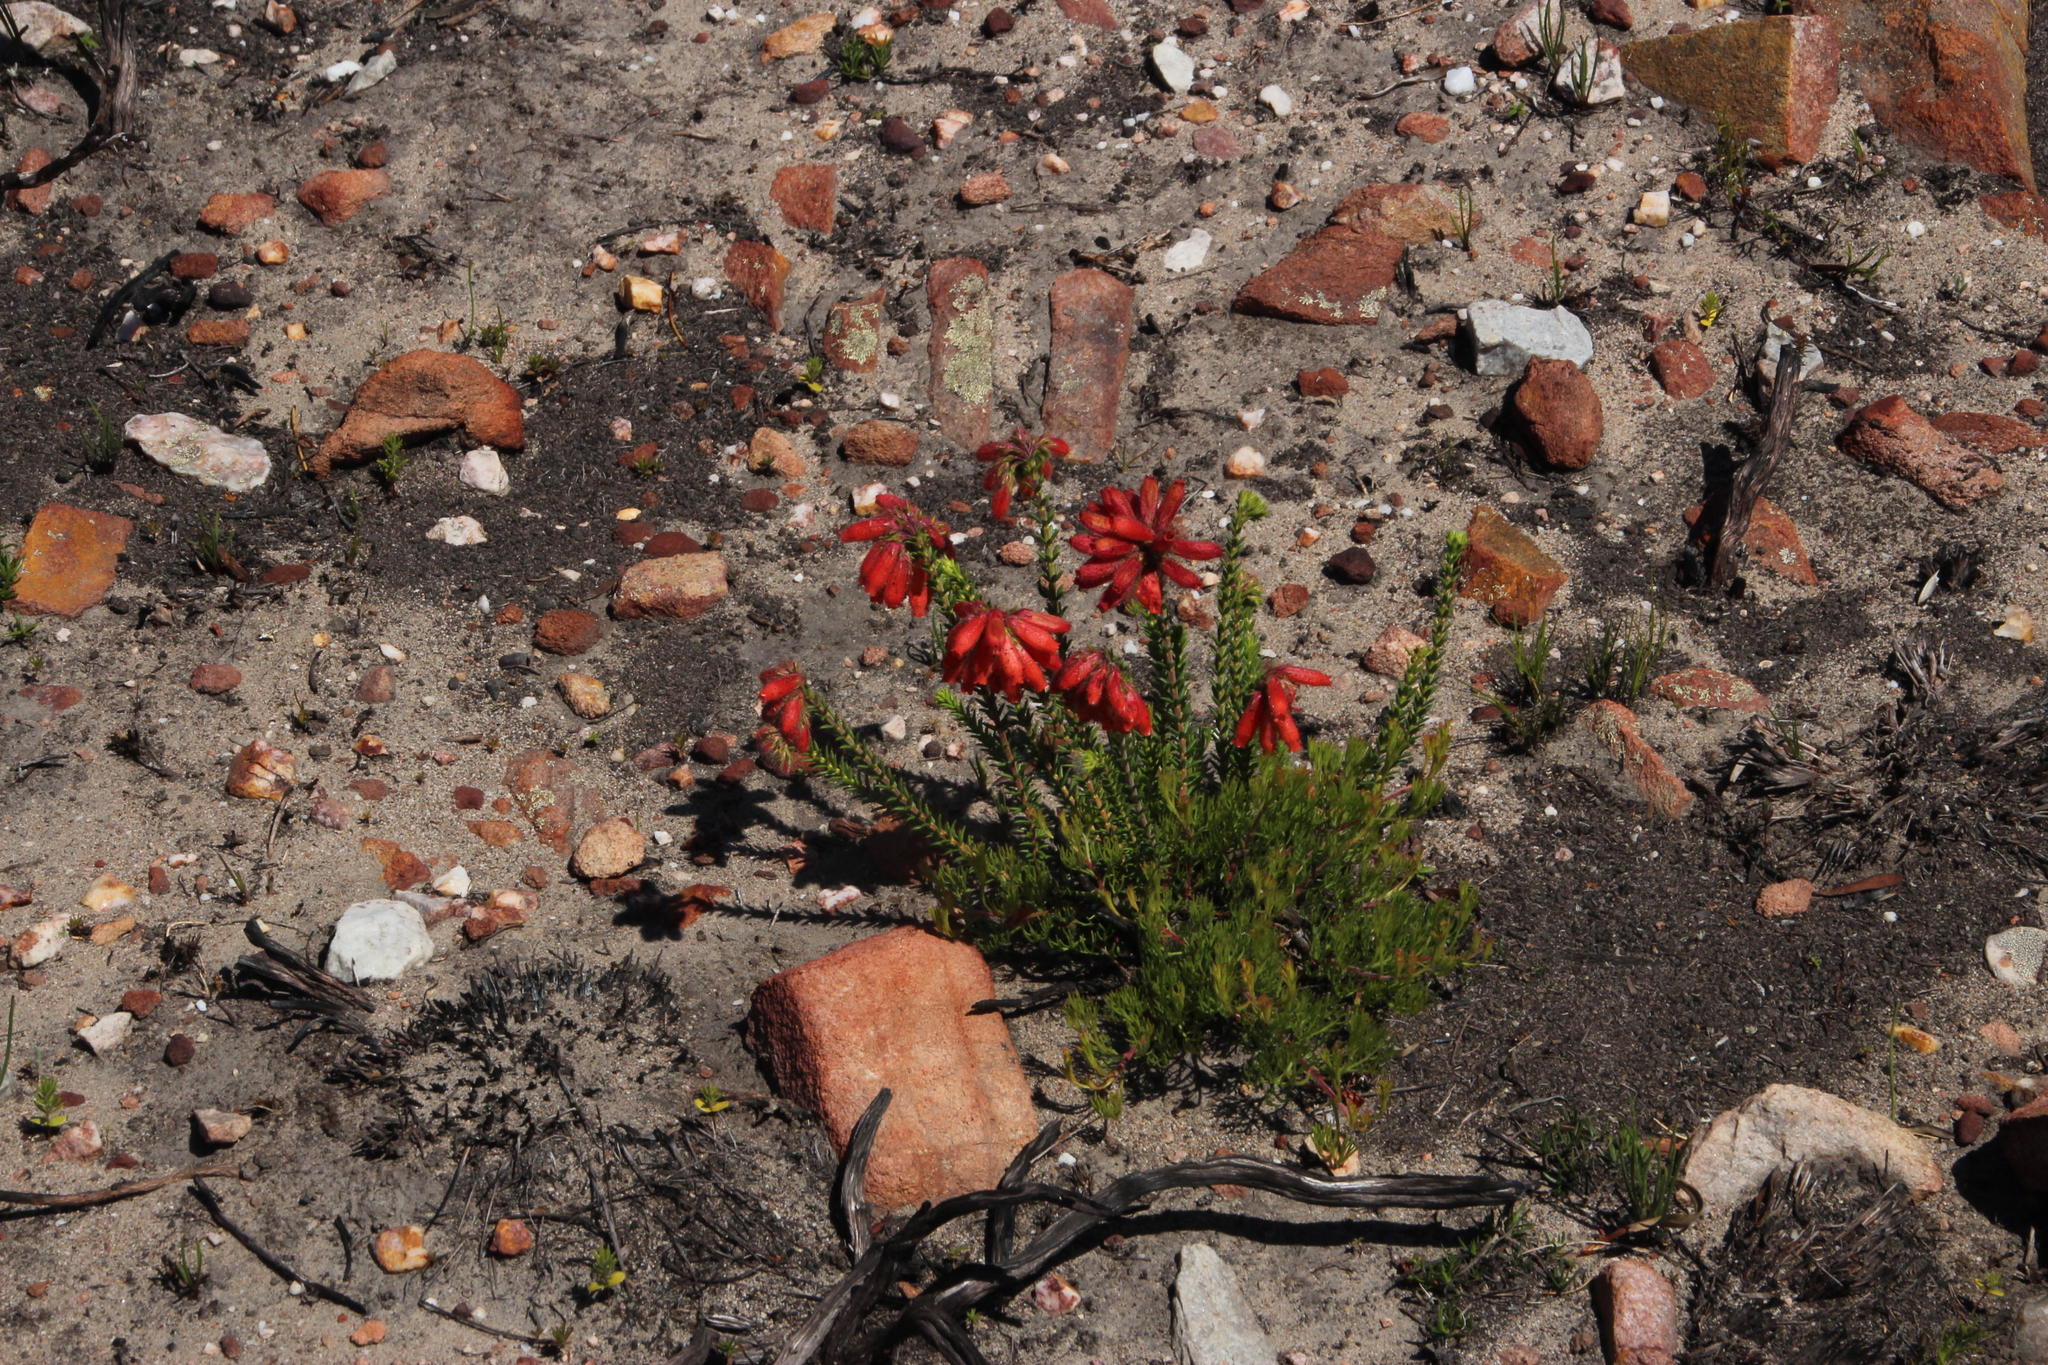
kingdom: Plantae
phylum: Tracheophyta
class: Magnoliopsida
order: Ericales
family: Ericaceae
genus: Erica
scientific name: Erica cerinthoides
